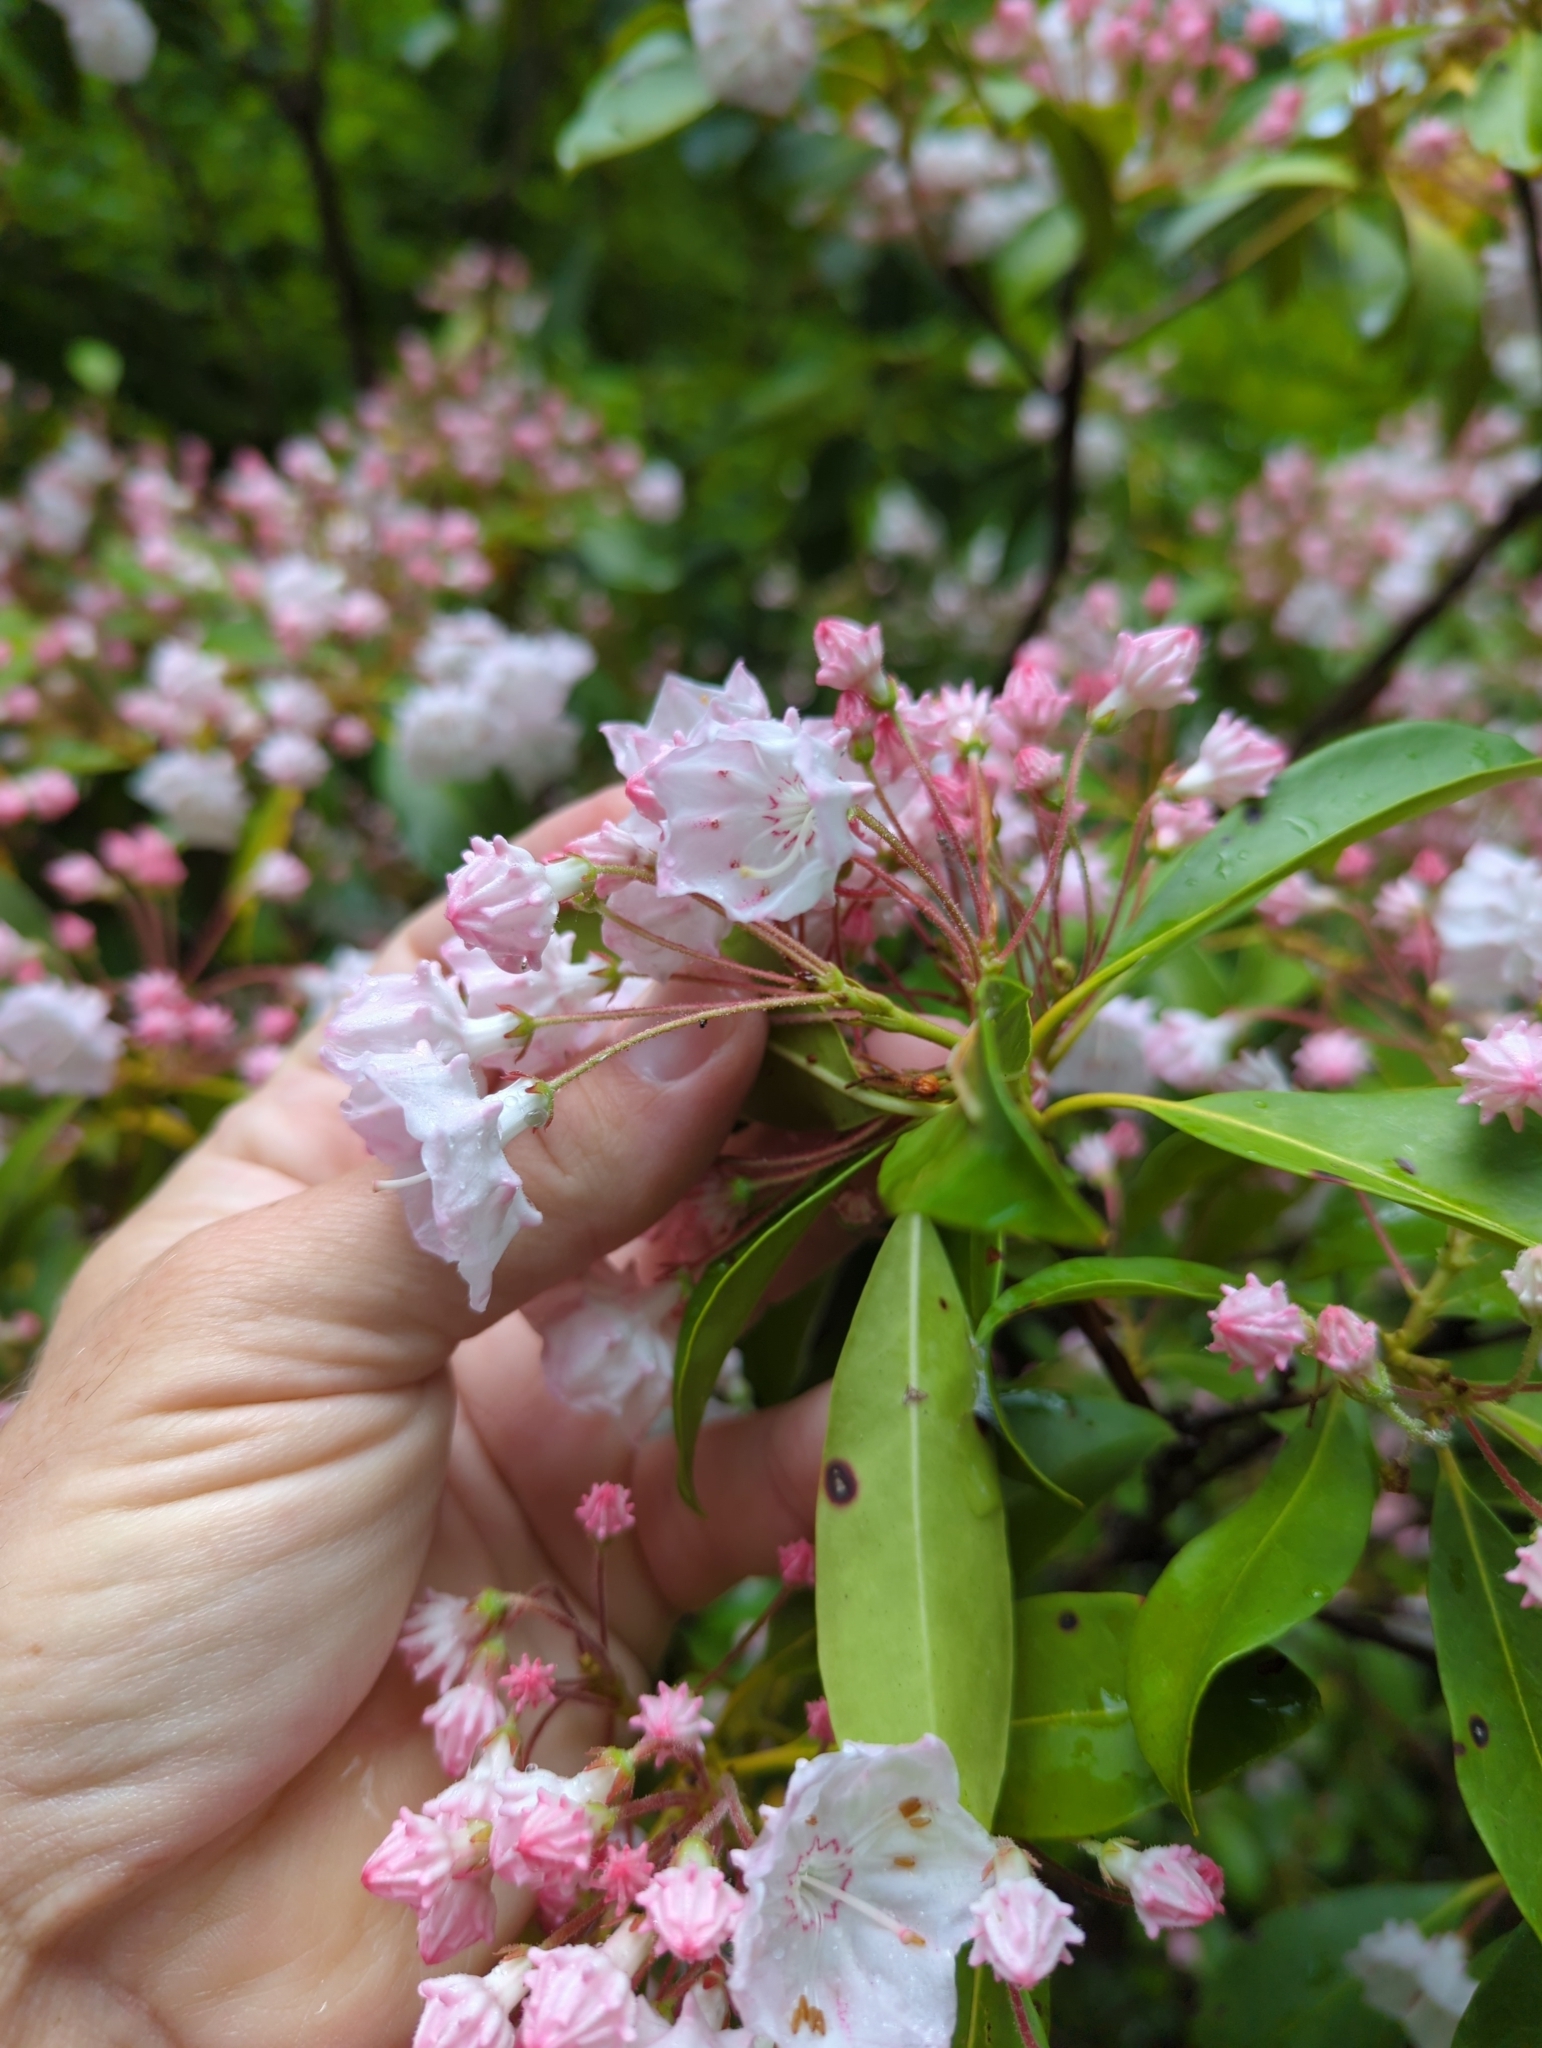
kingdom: Plantae
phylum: Tracheophyta
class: Magnoliopsida
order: Ericales
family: Ericaceae
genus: Kalmia
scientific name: Kalmia latifolia
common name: Mountain-laurel
